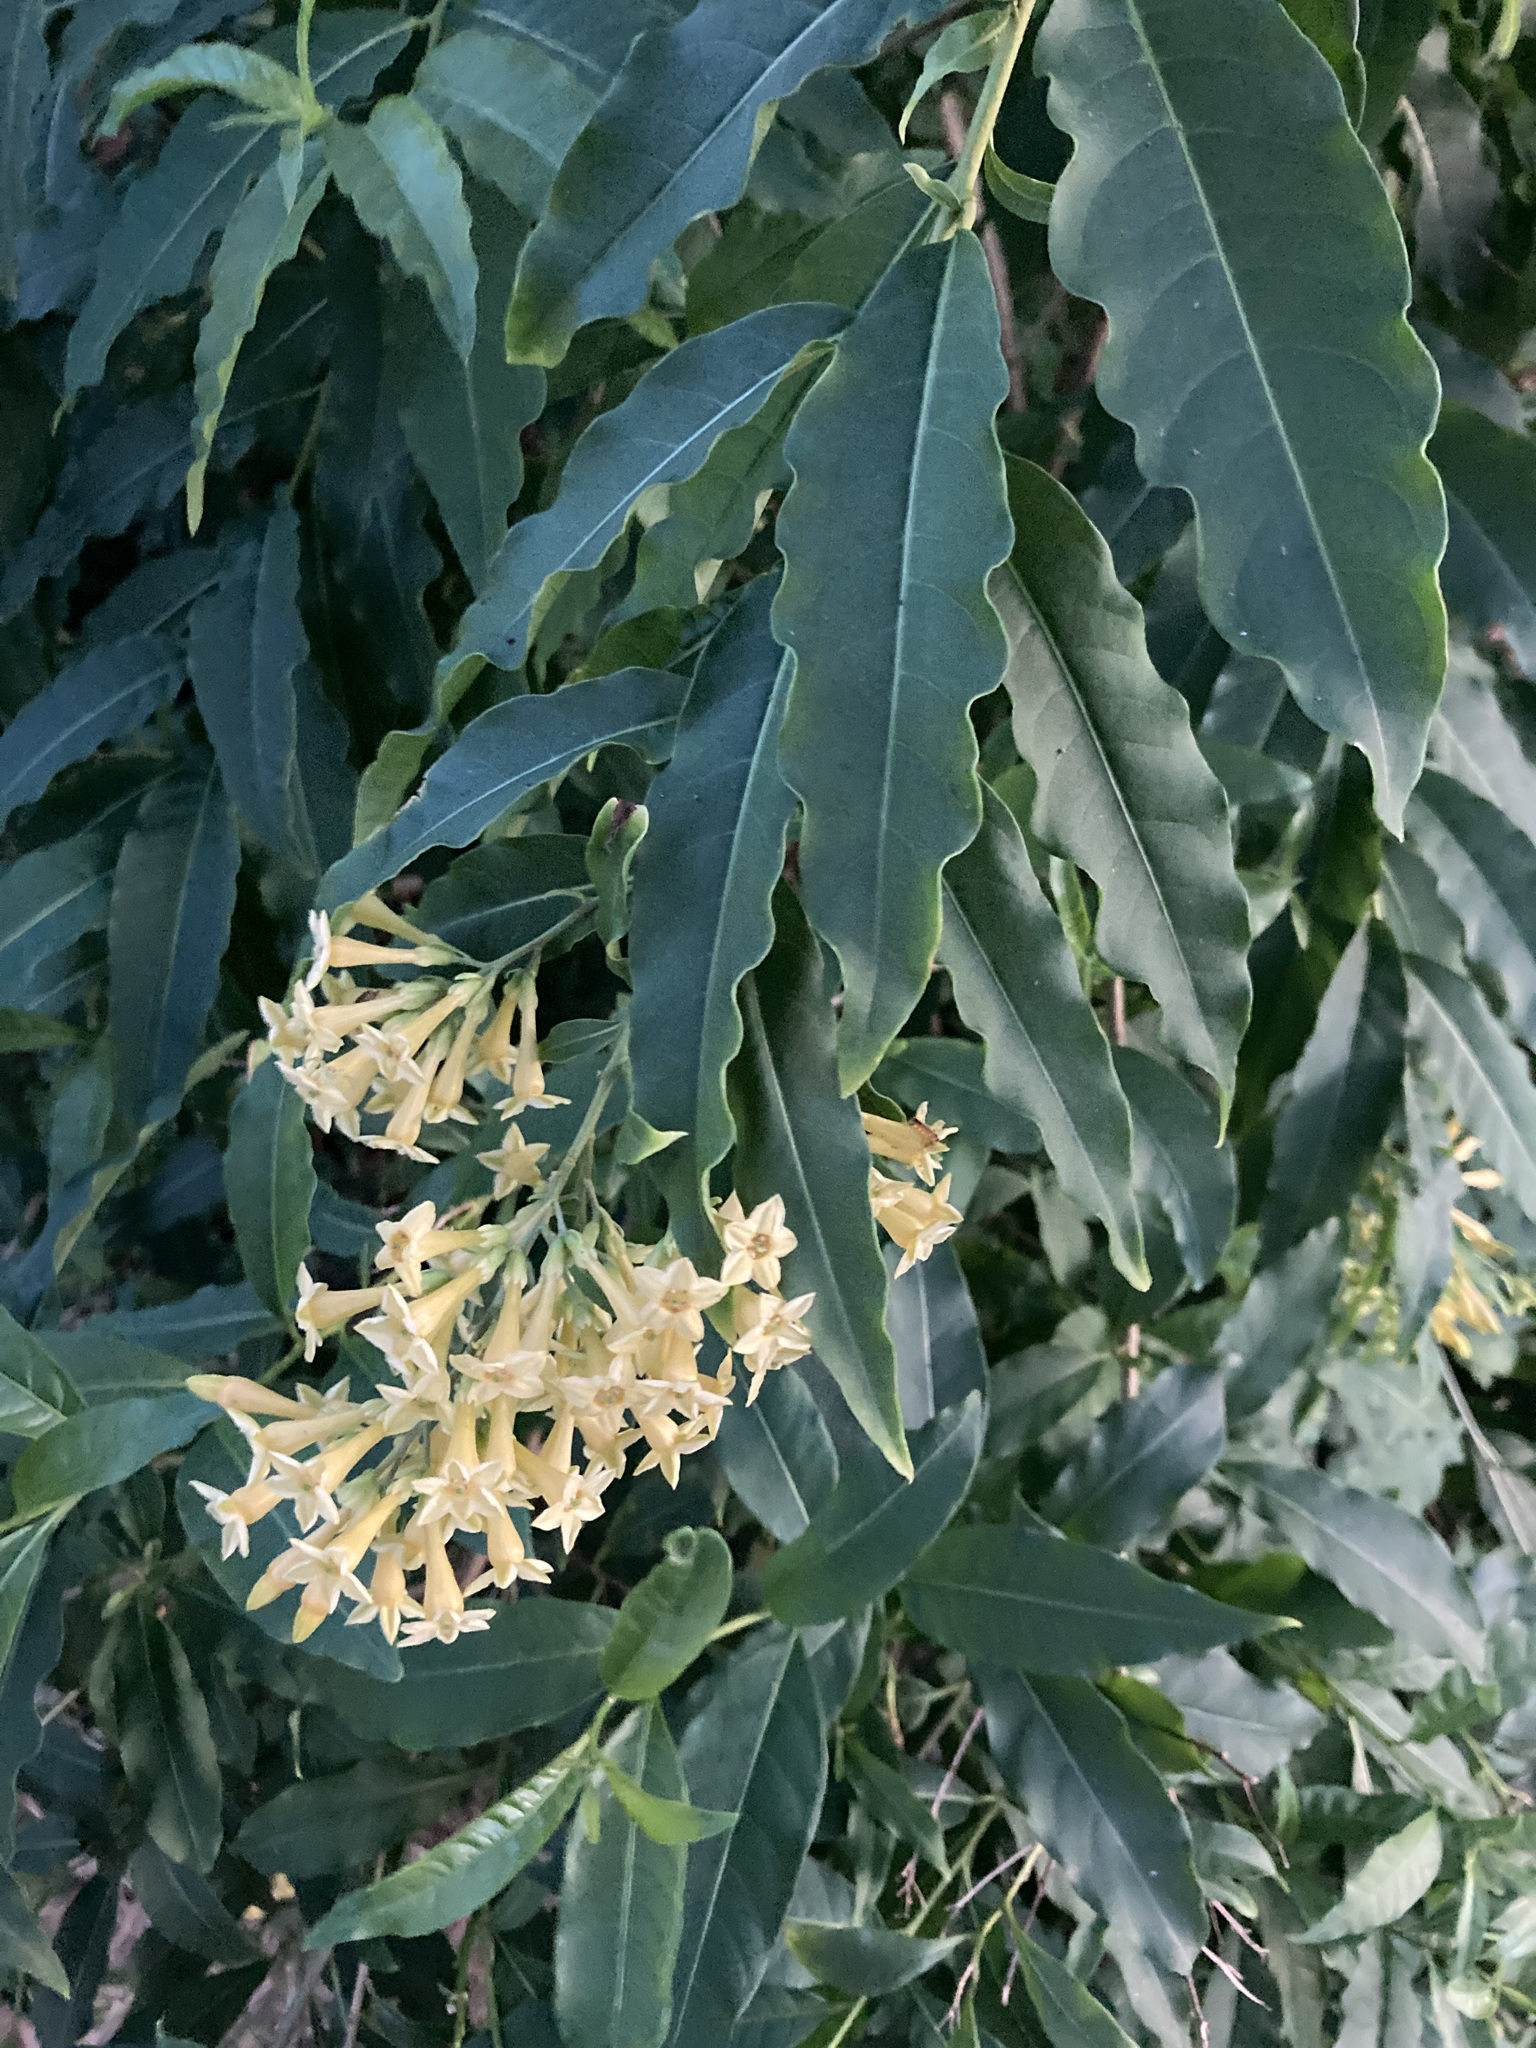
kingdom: Plantae
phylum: Tracheophyta
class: Magnoliopsida
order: Solanales
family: Solanaceae
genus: Cestrum
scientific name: Cestrum parqui
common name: Chilean cestrum
